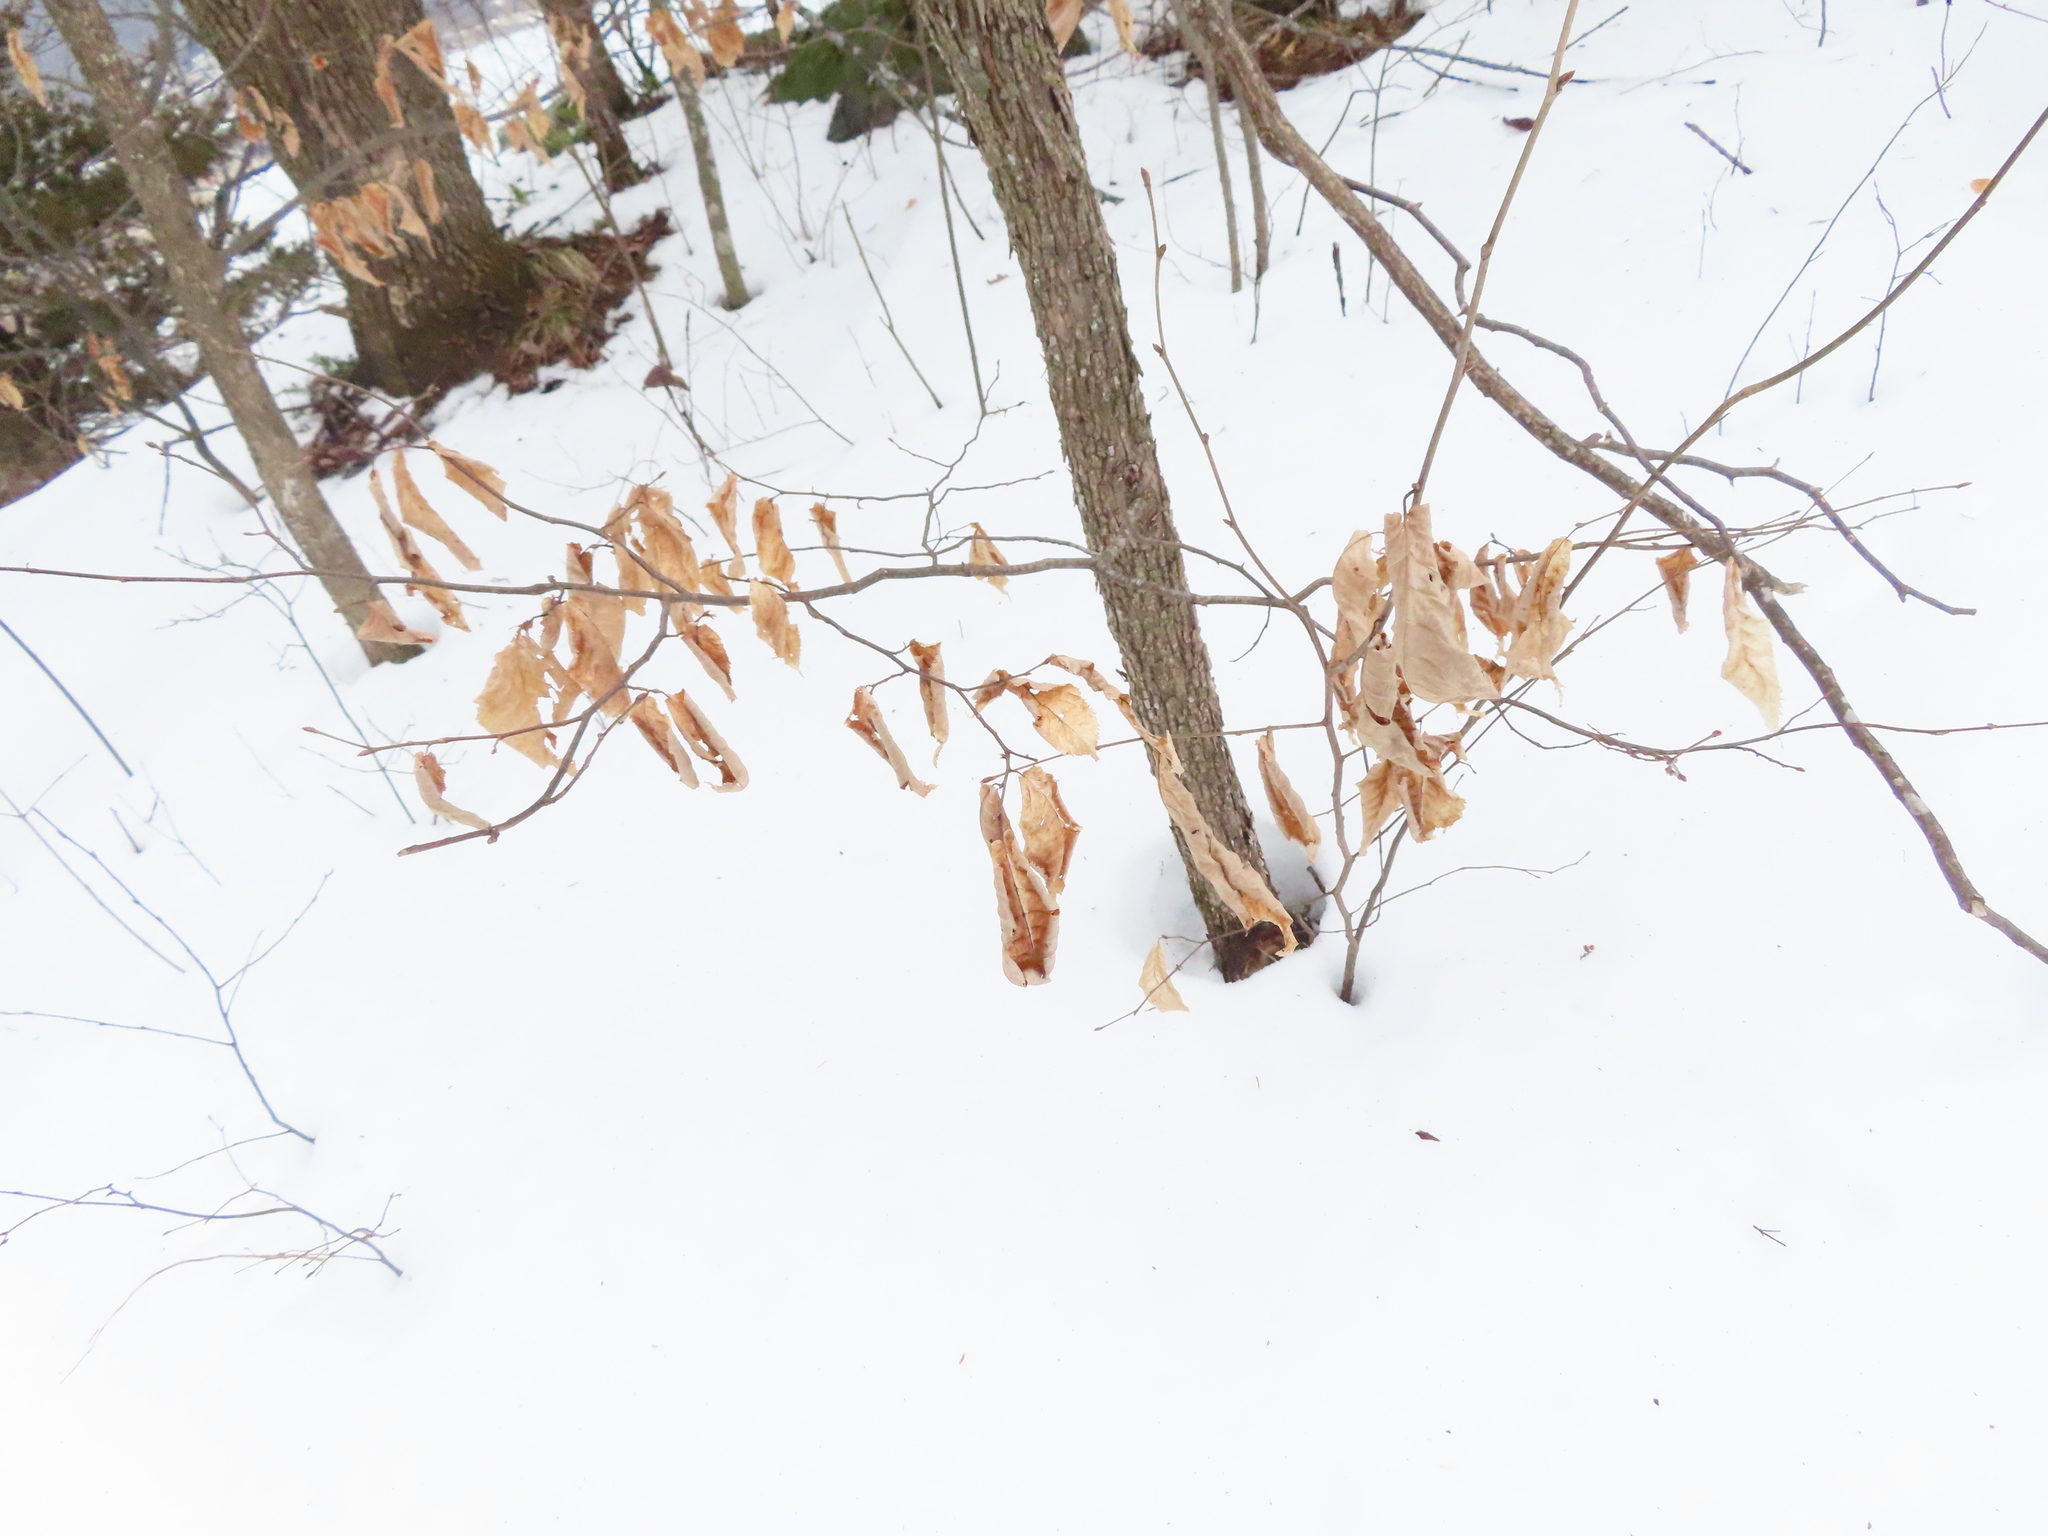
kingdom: Plantae
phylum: Tracheophyta
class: Magnoliopsida
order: Fagales
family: Betulaceae
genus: Ostrya
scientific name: Ostrya virginiana
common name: Ironwood
